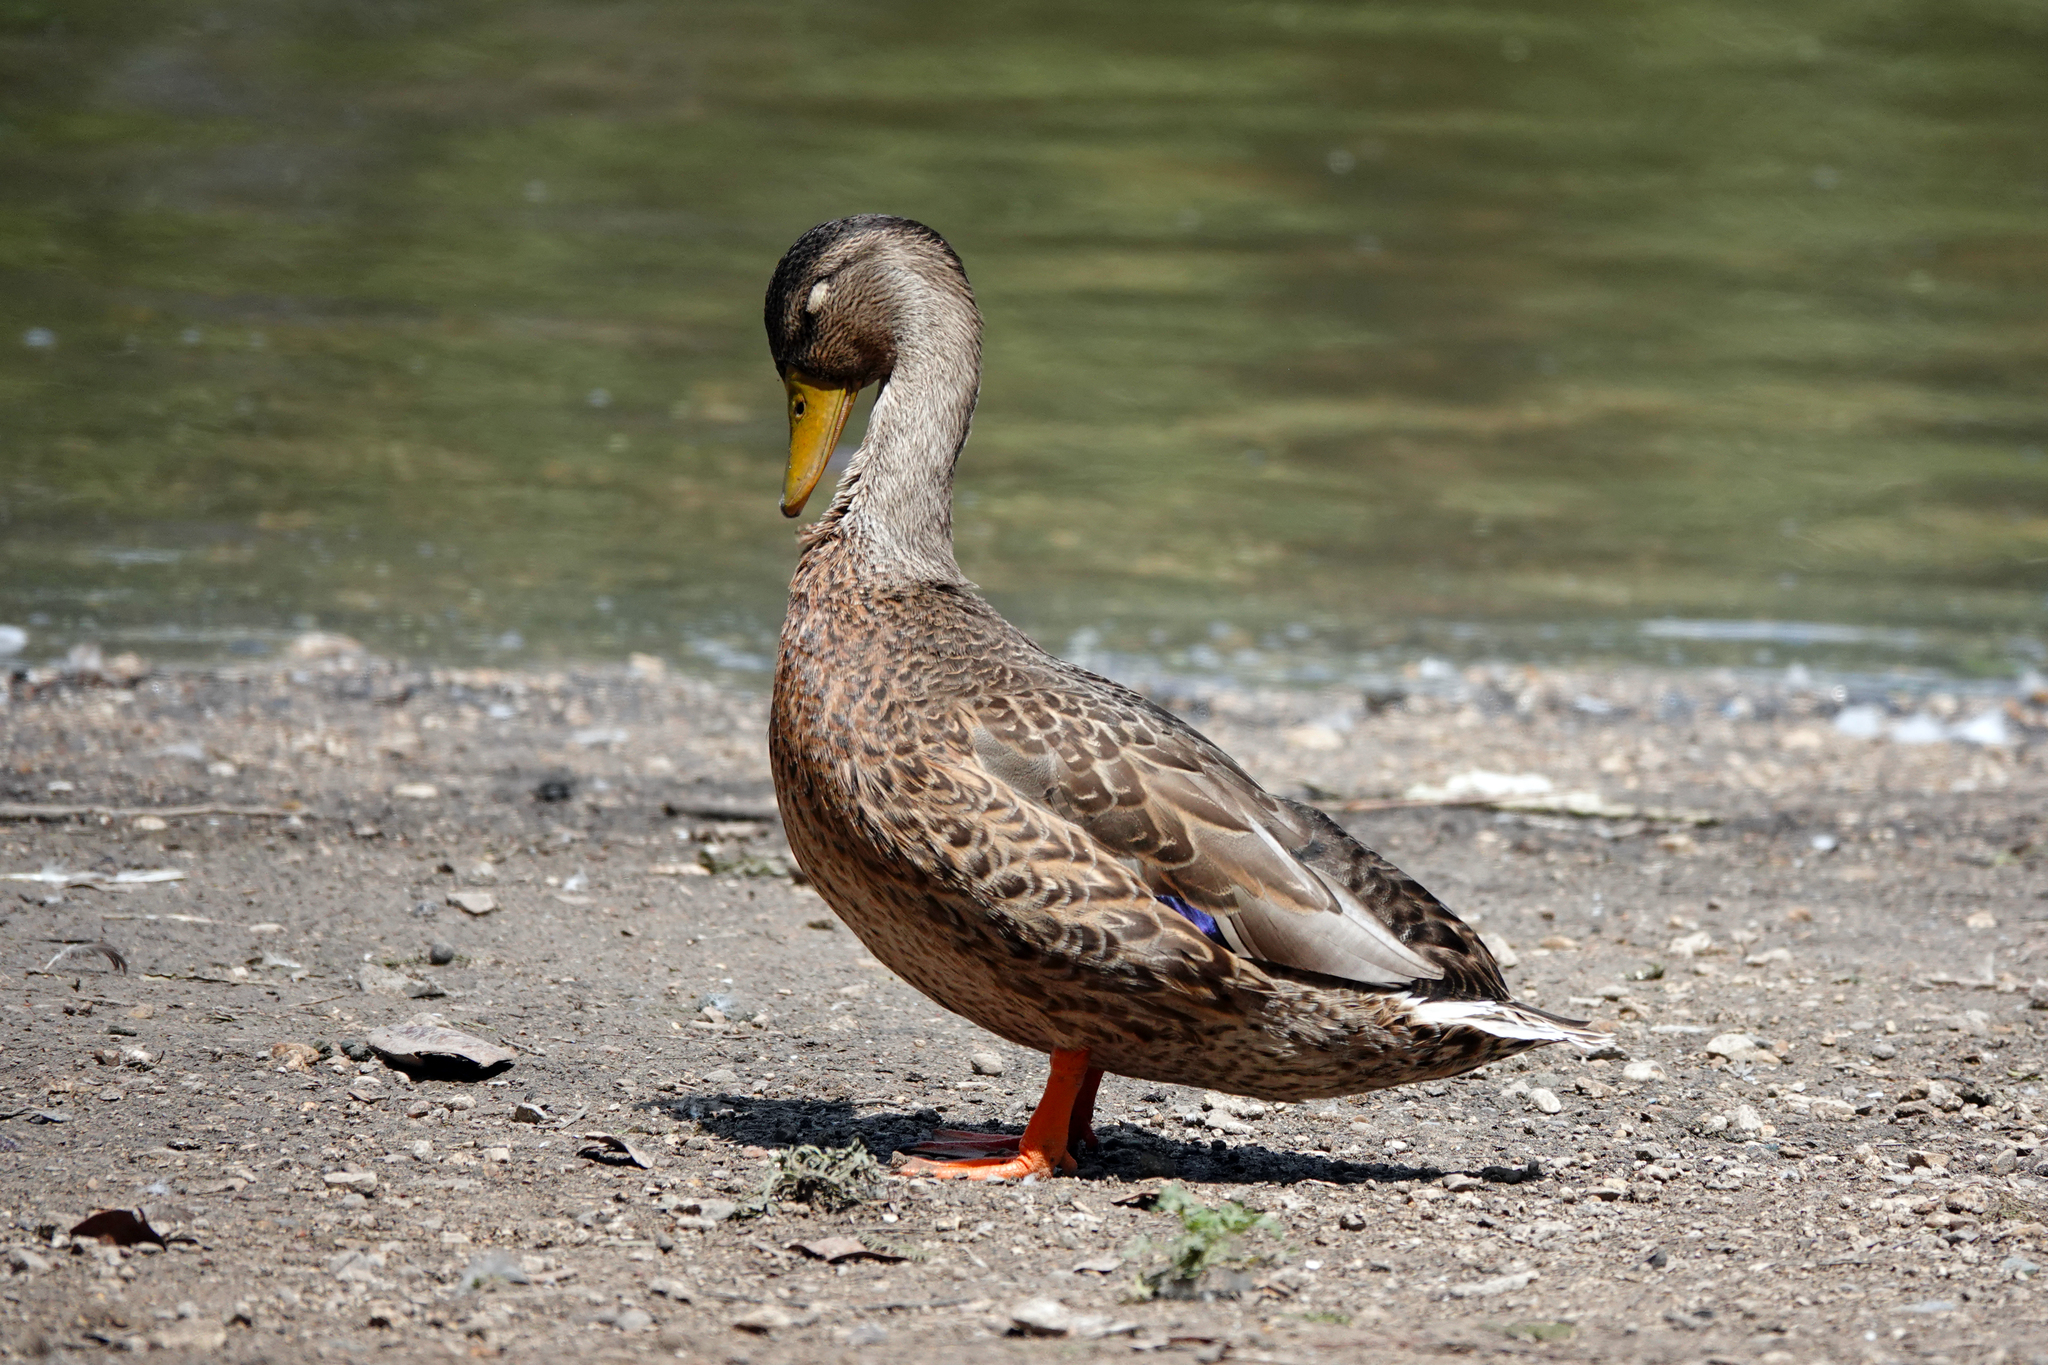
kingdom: Animalia
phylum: Chordata
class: Aves
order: Anseriformes
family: Anatidae
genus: Anas
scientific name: Anas platyrhynchos
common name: Mallard
